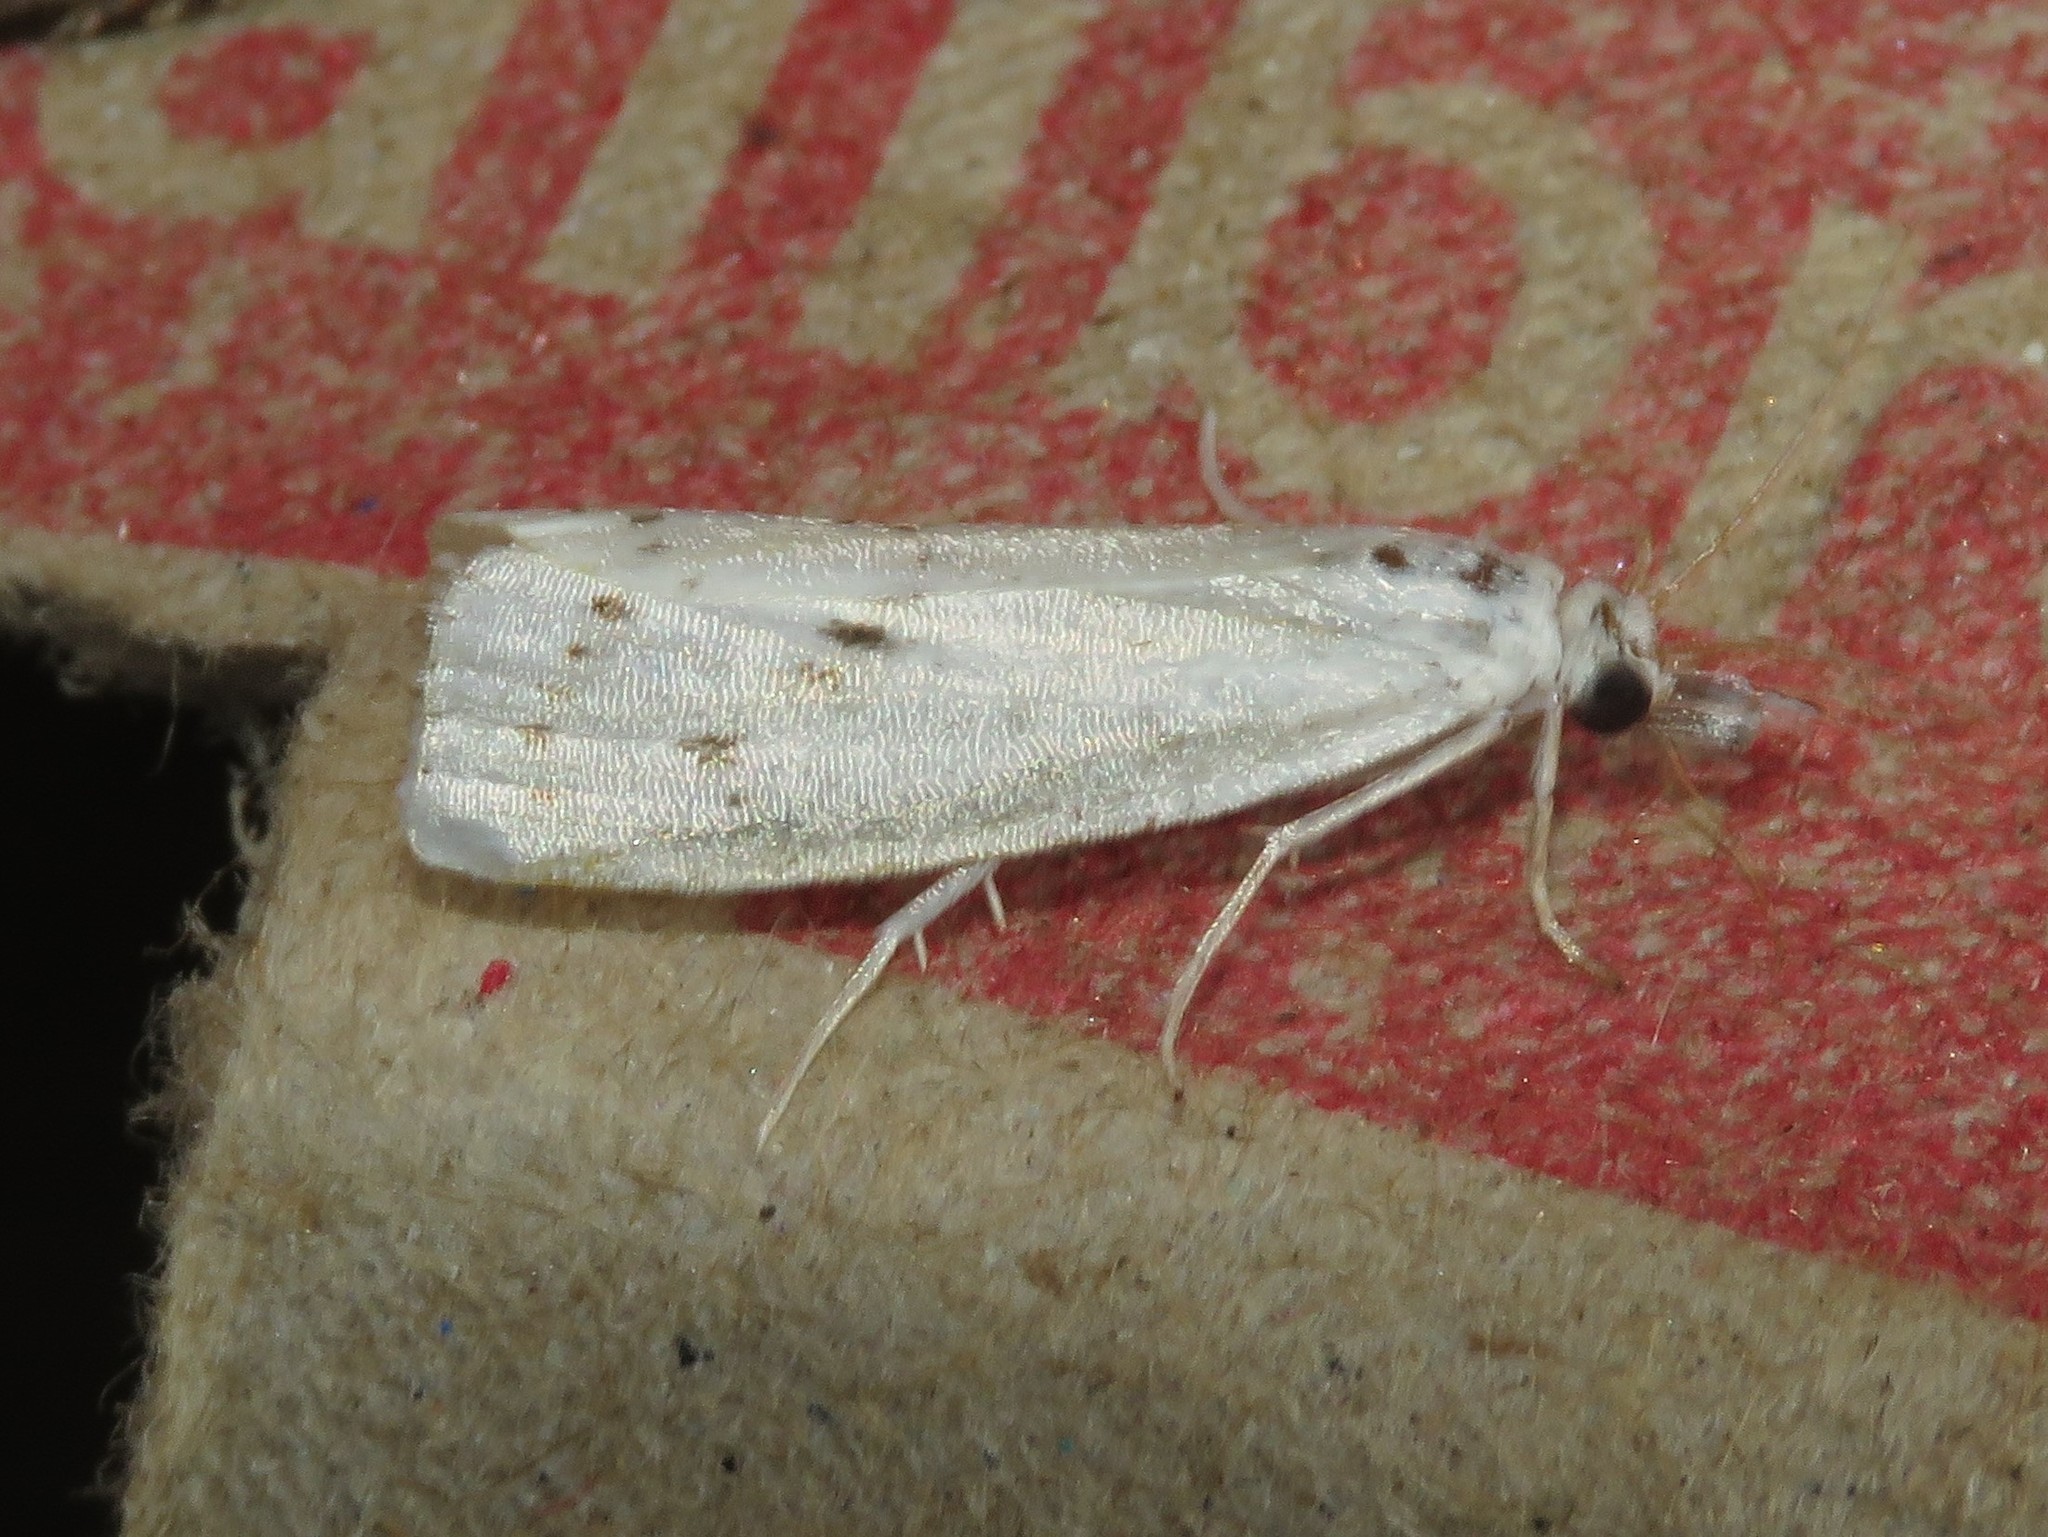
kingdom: Animalia
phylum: Arthropoda
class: Insecta
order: Lepidoptera
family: Crambidae
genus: Microcrambus
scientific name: Microcrambus biguttellus
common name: Gold-stripe grass-veneer moth
